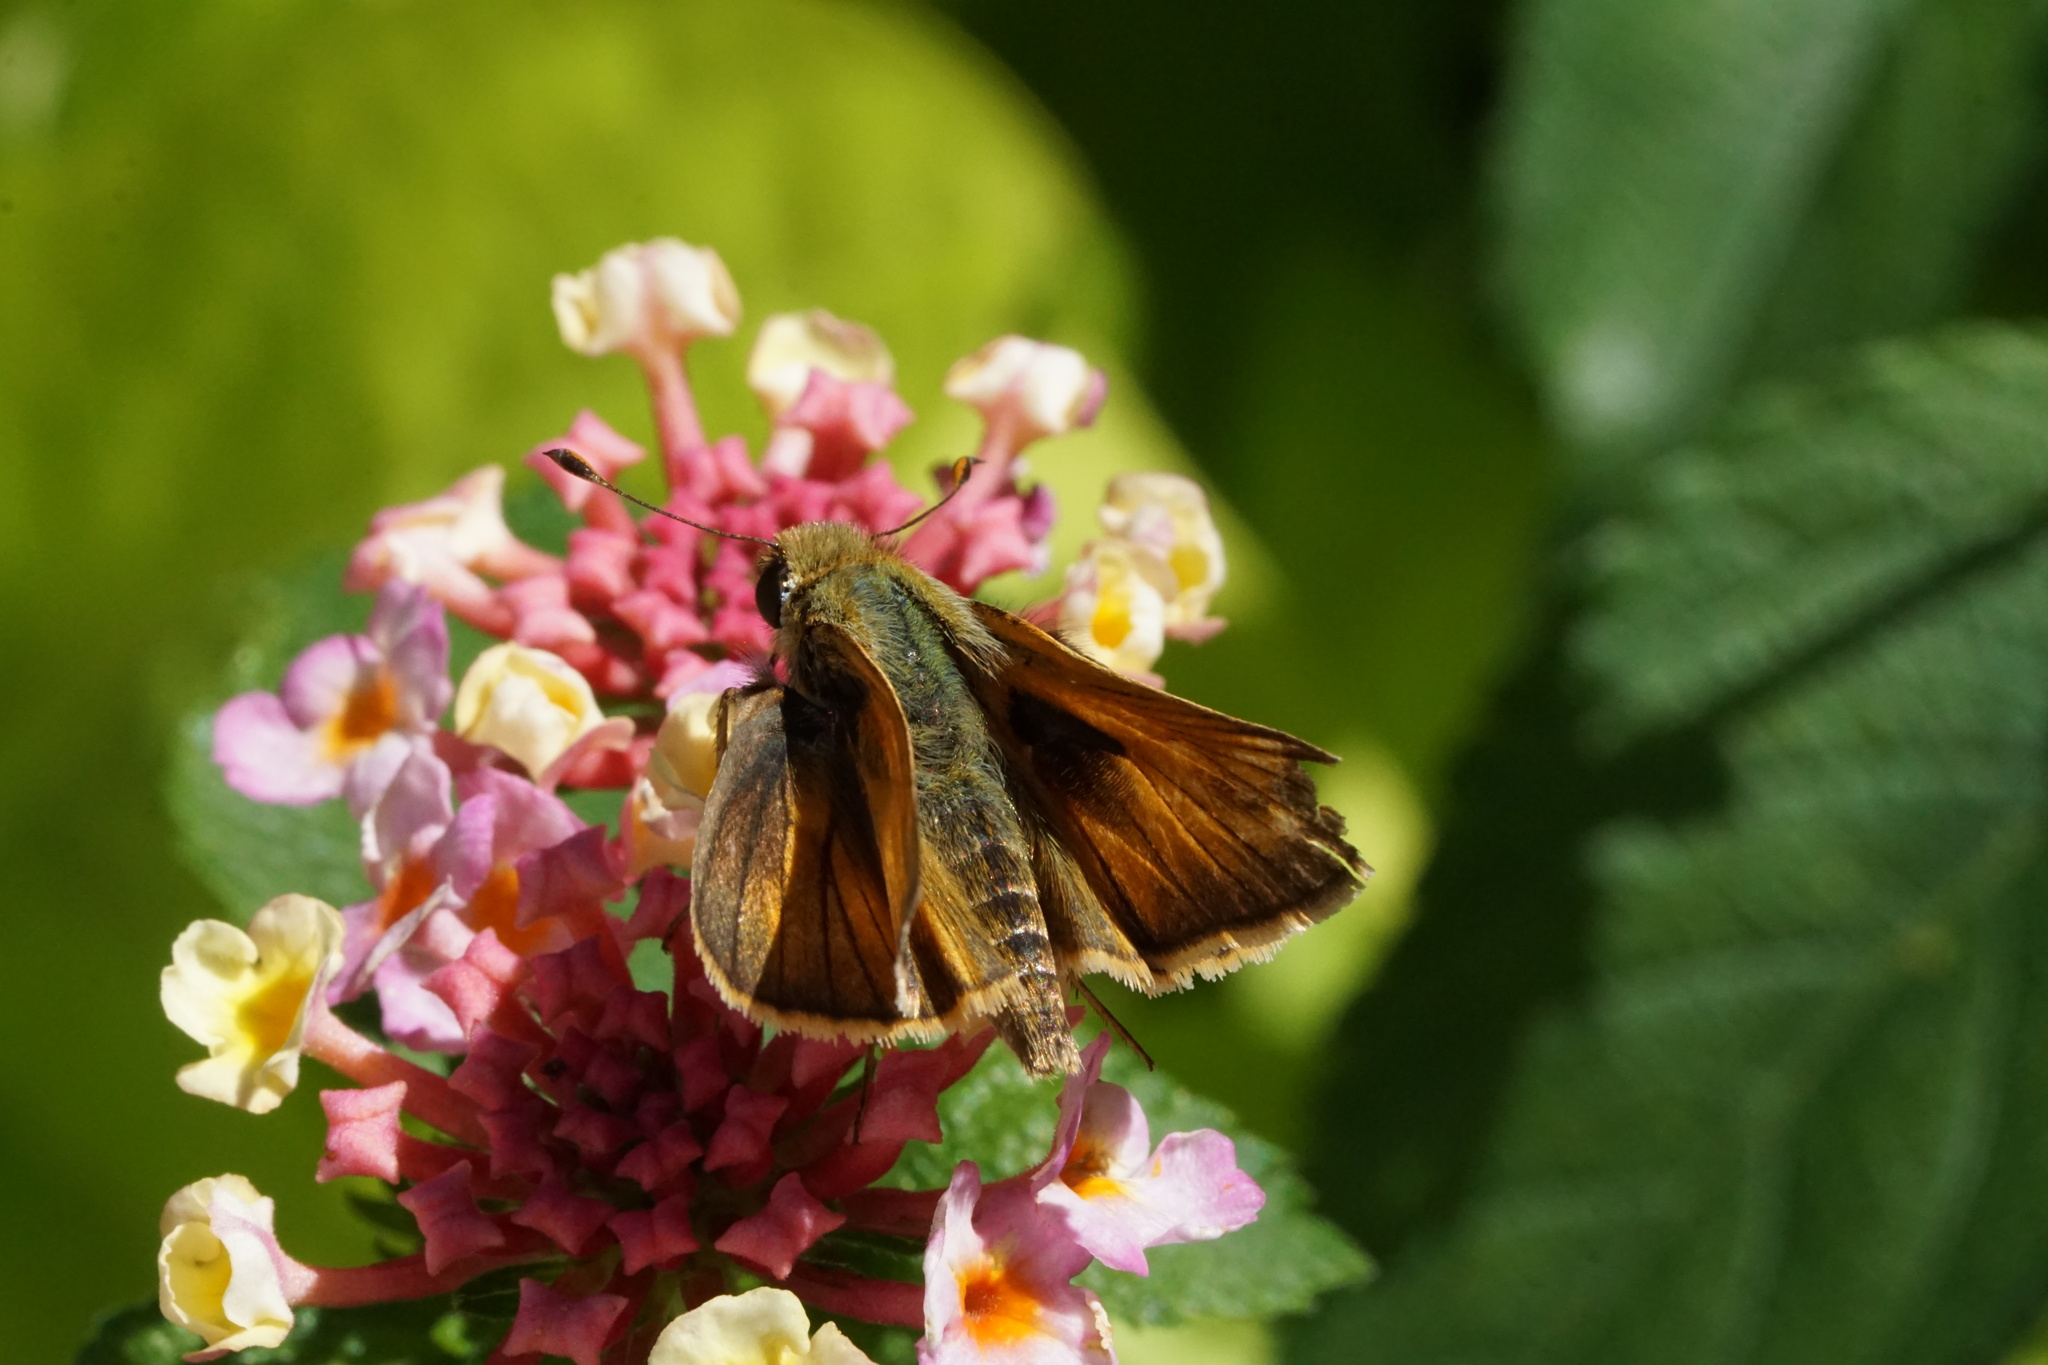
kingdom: Animalia
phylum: Arthropoda
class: Insecta
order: Lepidoptera
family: Hesperiidae
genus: Atalopedes
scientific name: Atalopedes
